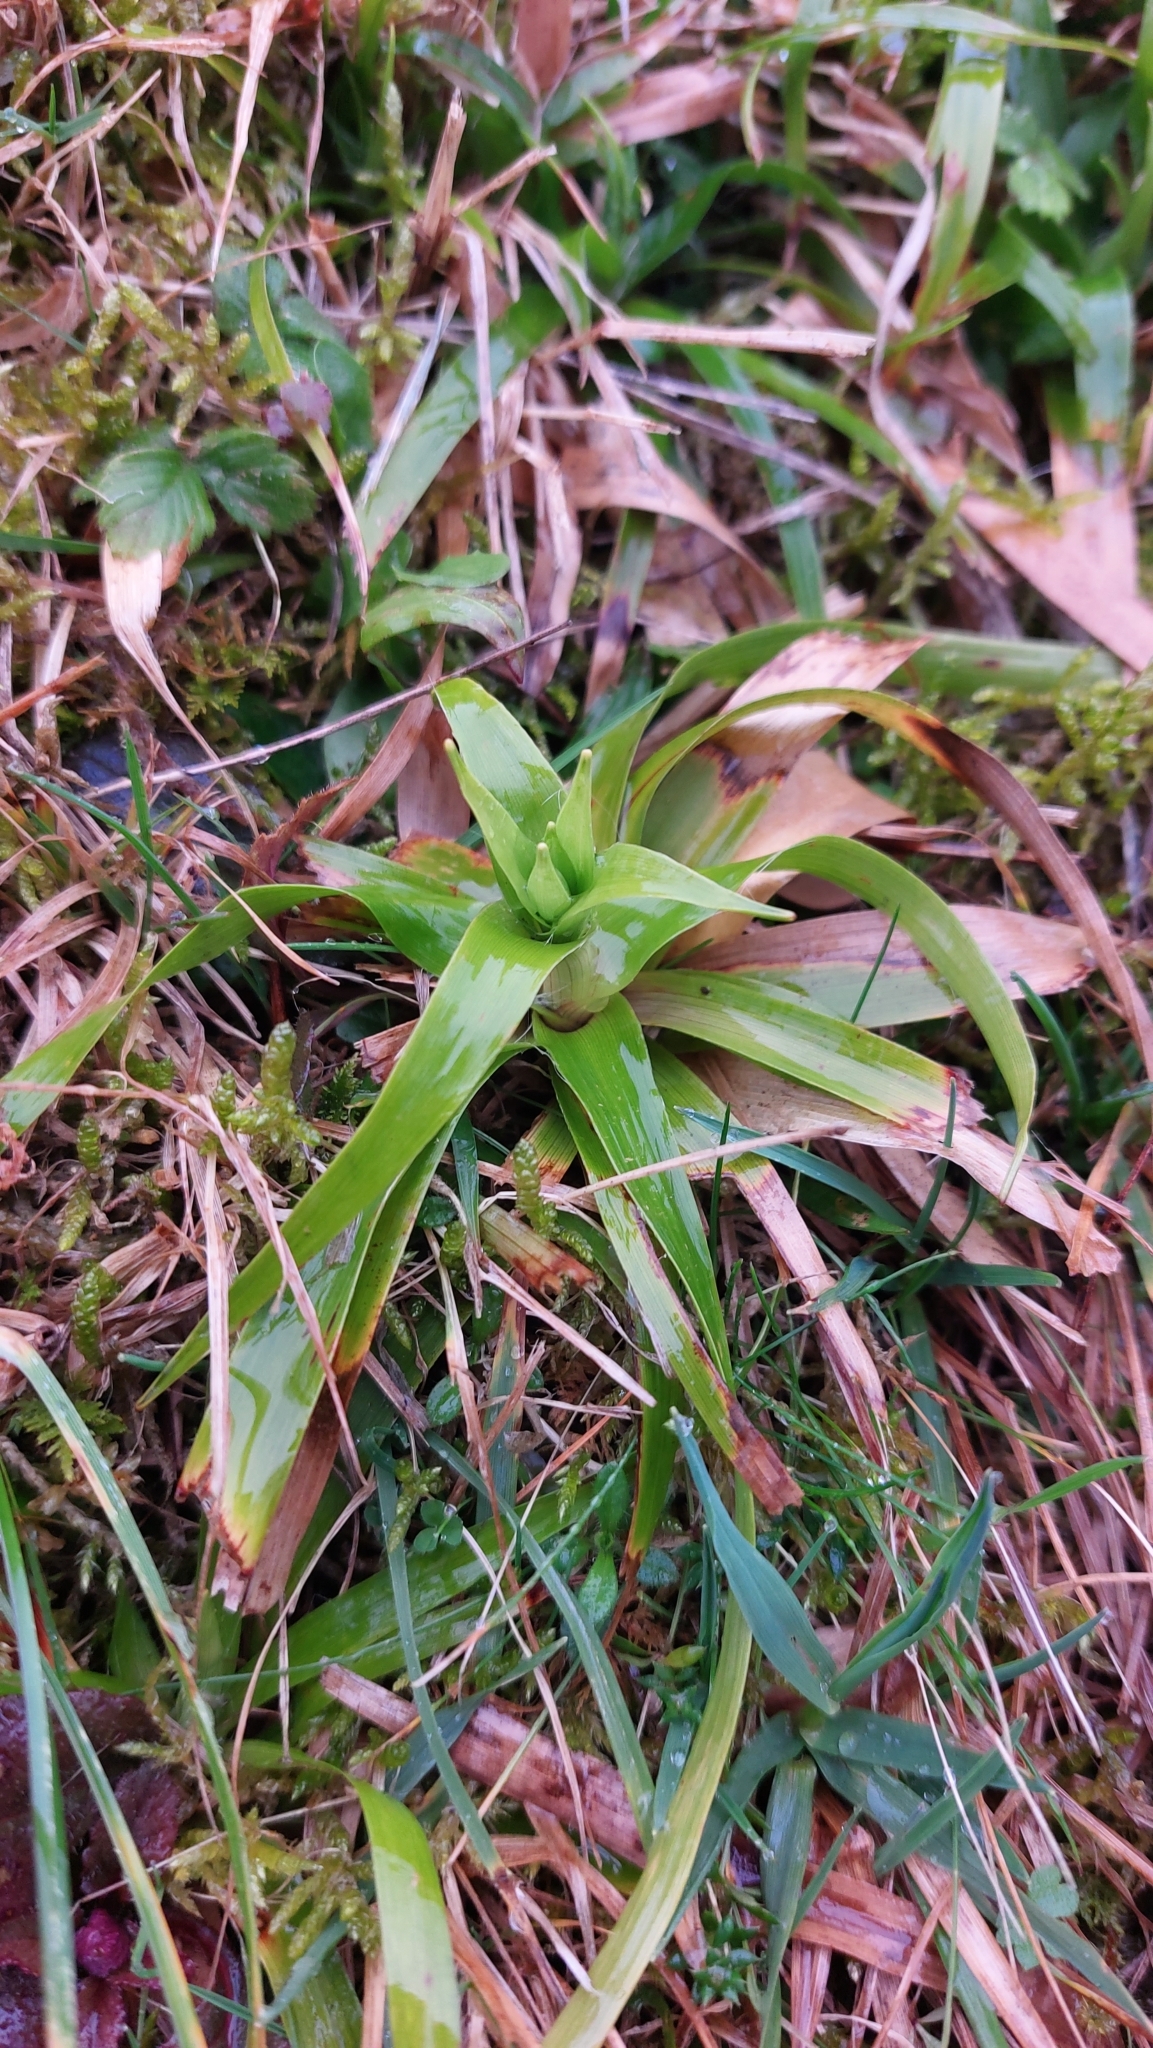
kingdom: Plantae
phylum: Tracheophyta
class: Liliopsida
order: Poales
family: Juncaceae
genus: Luzula
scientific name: Luzula sylvatica
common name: Great wood-rush
